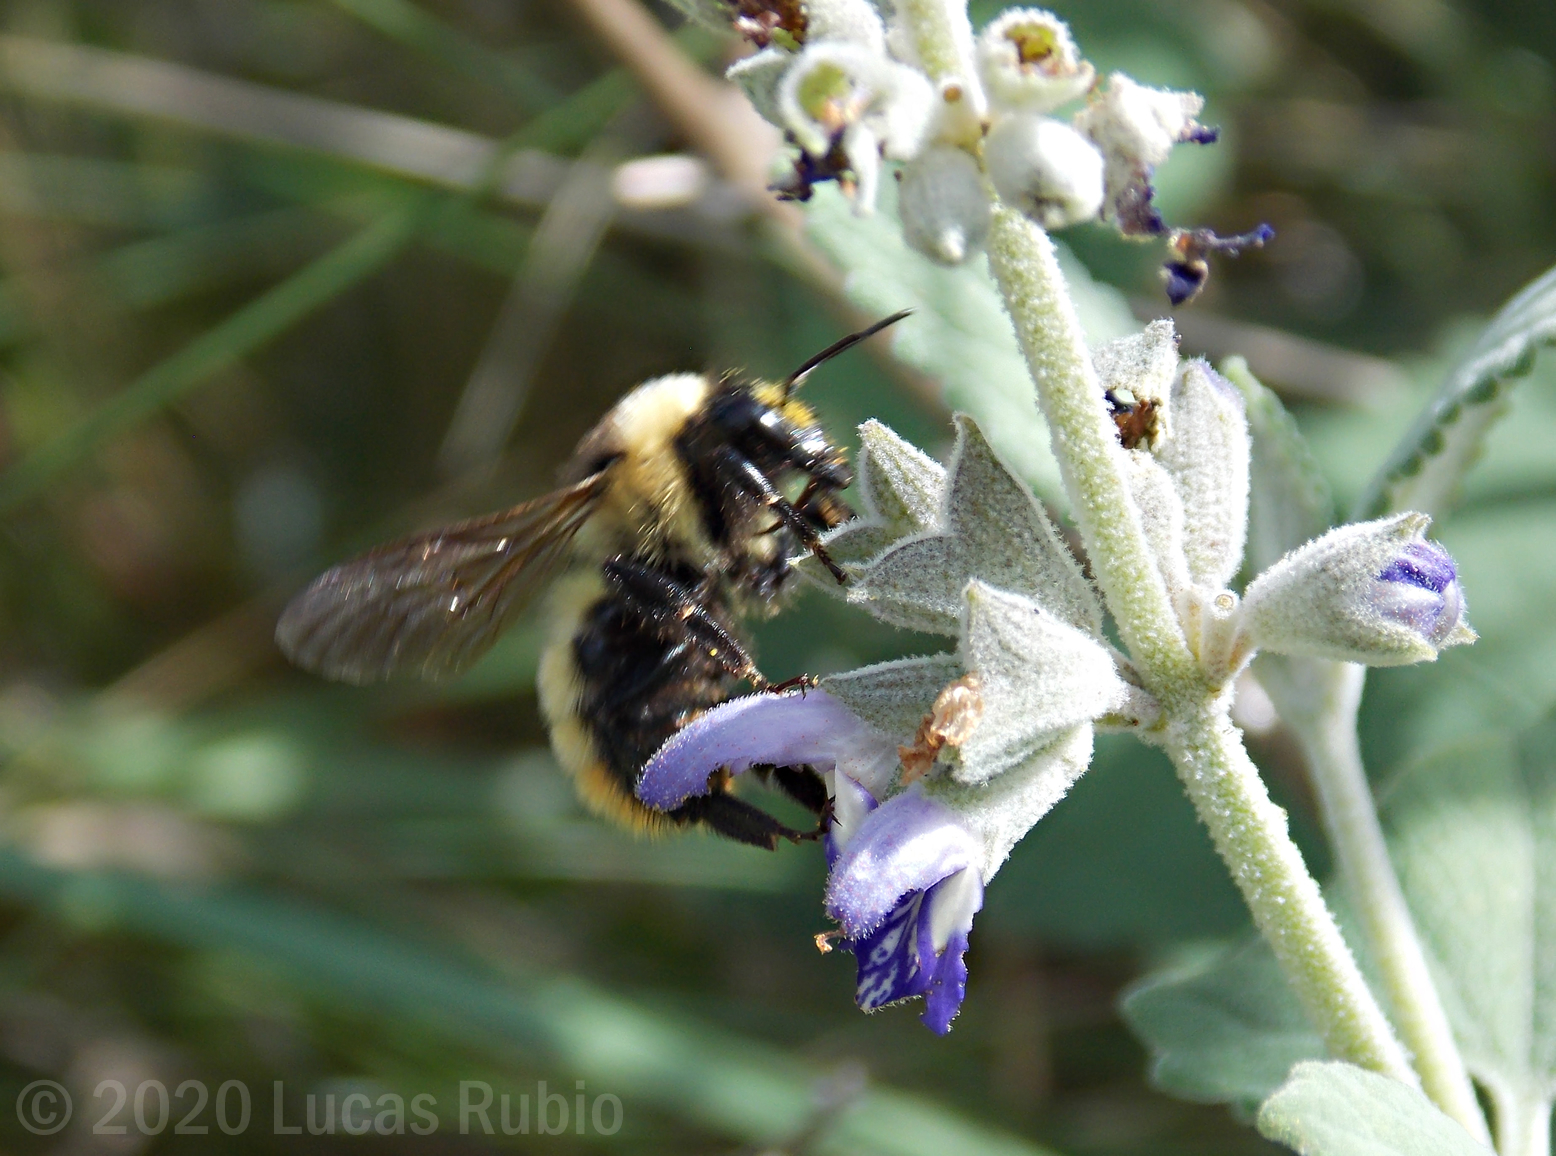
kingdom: Animalia
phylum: Arthropoda
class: Insecta
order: Hymenoptera
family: Apidae
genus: Bombus
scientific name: Bombus opifex
